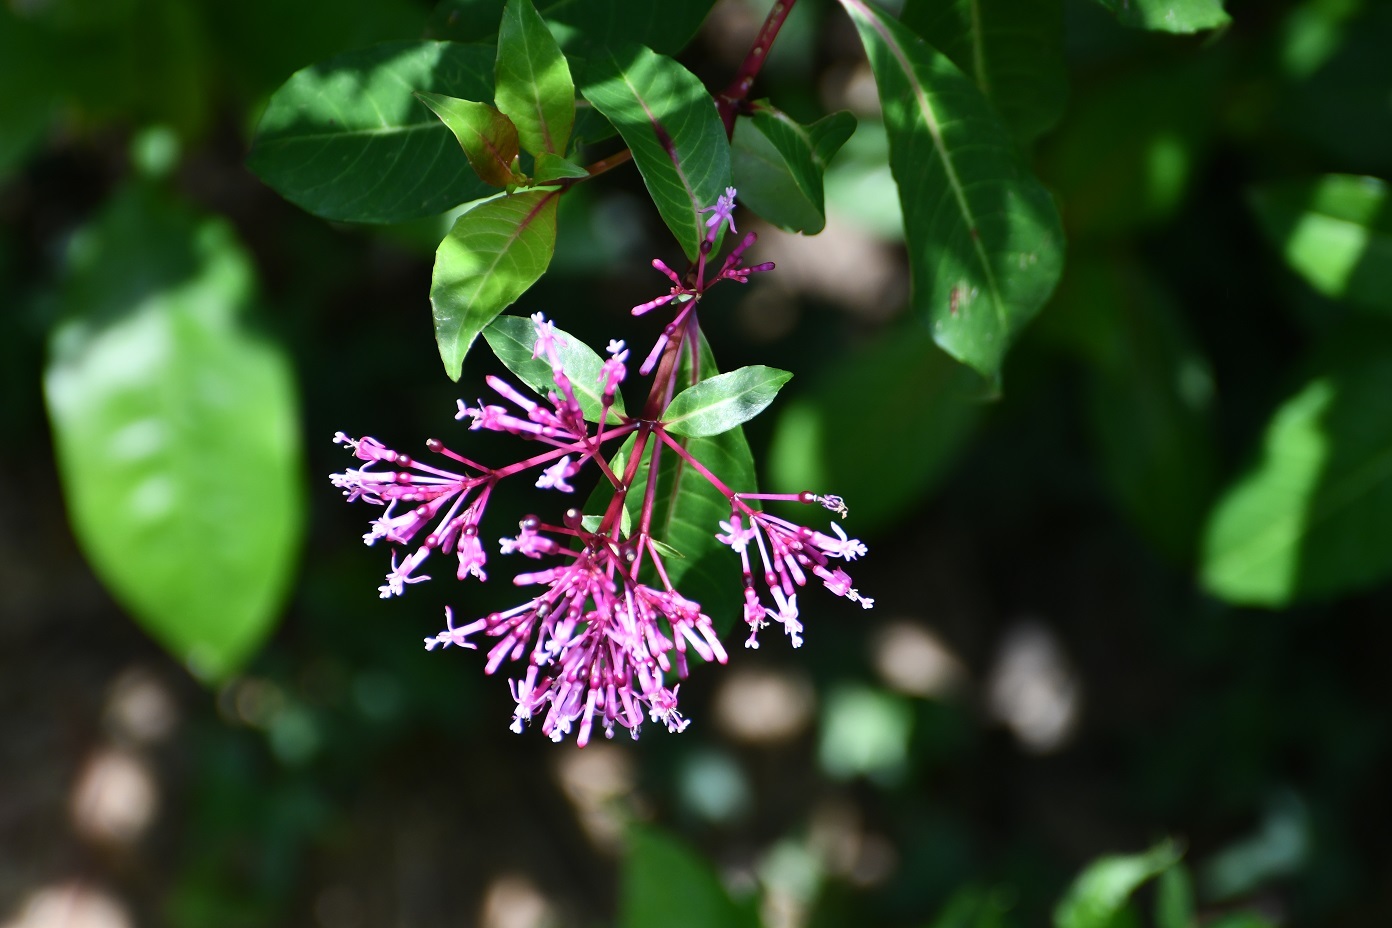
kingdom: Plantae
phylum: Tracheophyta
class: Magnoliopsida
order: Myrtales
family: Onagraceae
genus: Fuchsia
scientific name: Fuchsia paniculata
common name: Shrubby fuchsia
